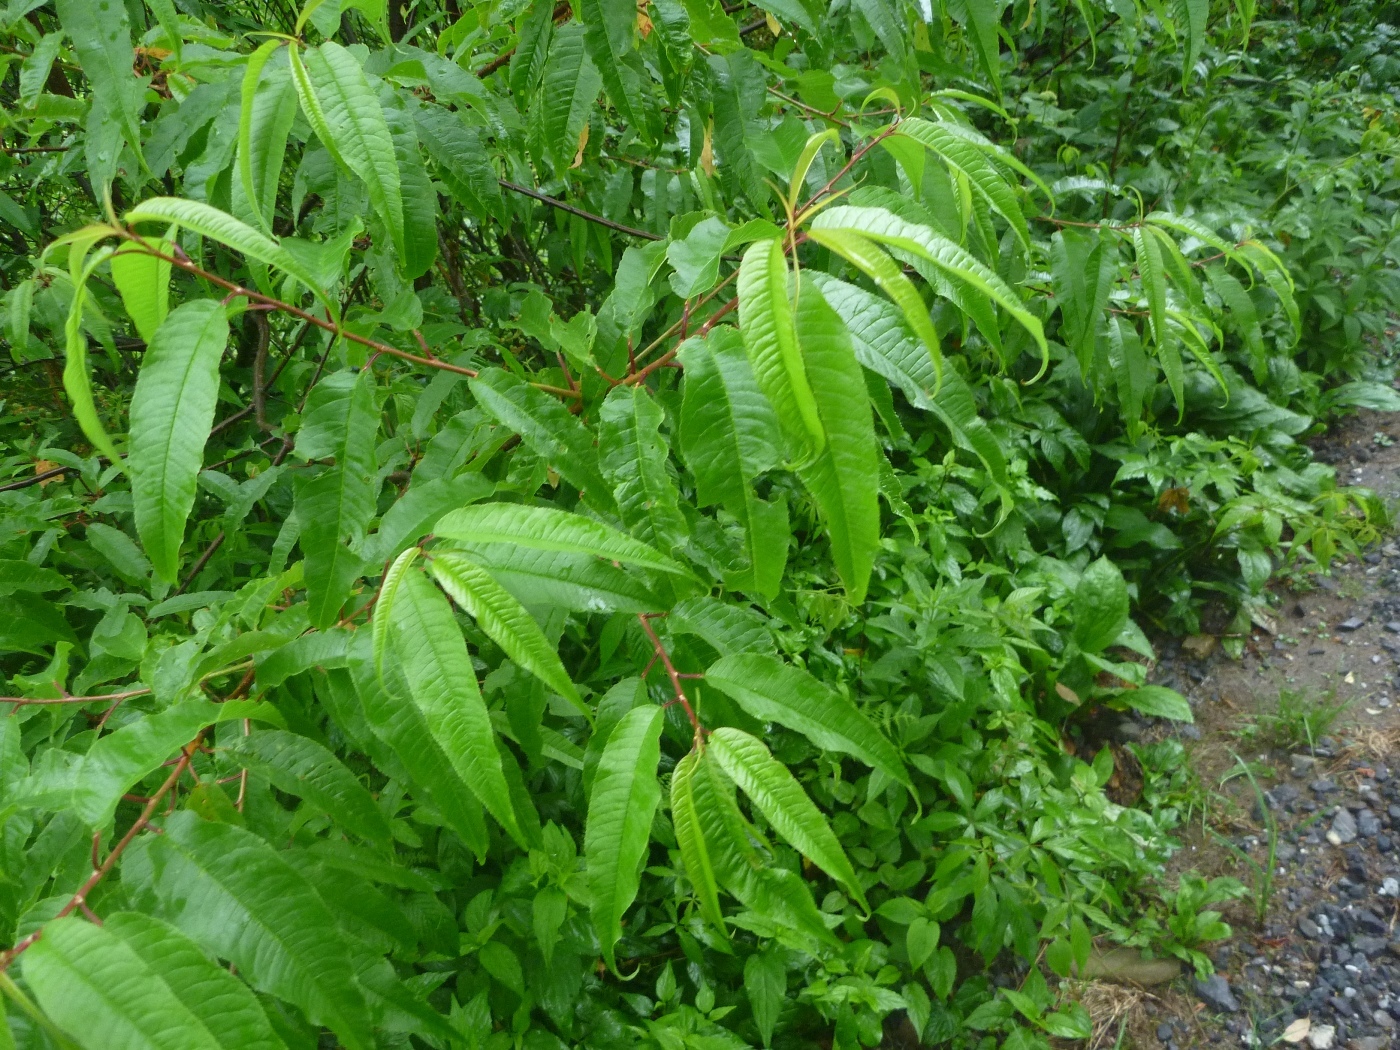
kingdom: Plantae
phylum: Tracheophyta
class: Magnoliopsida
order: Rosales
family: Rosaceae
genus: Prunus
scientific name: Prunus pensylvanica
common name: Pin cherry
